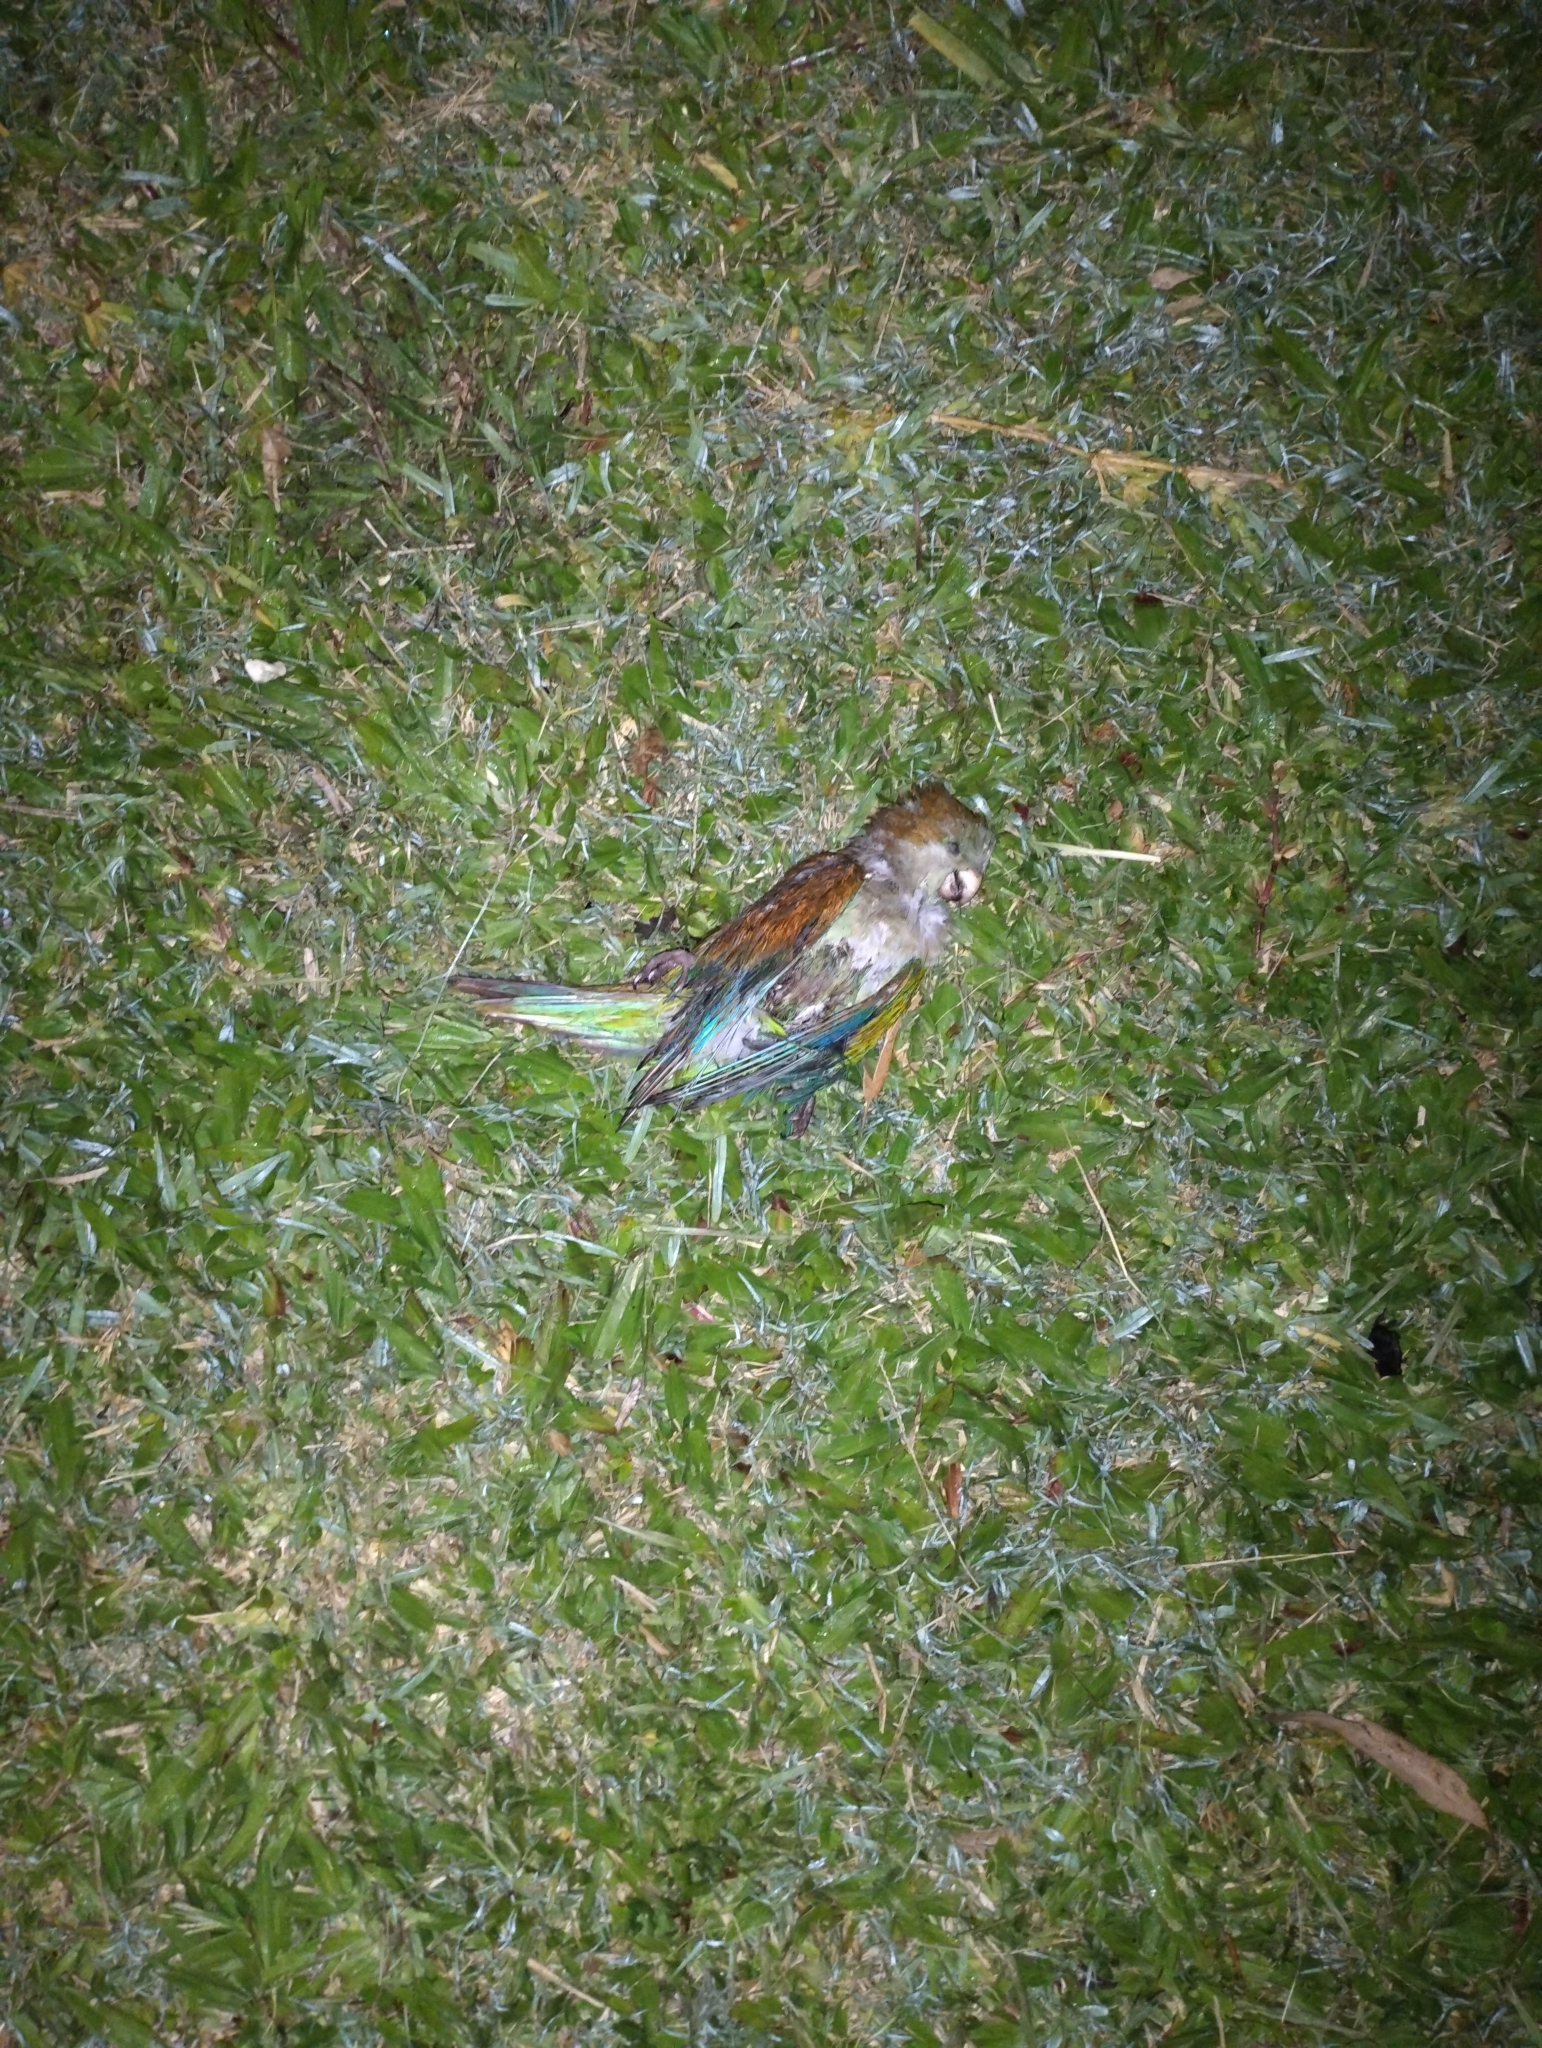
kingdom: Animalia
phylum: Chordata
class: Aves
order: Psittaciformes
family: Psittacidae
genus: Myiopsitta
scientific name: Myiopsitta monachus
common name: Monk parakeet
